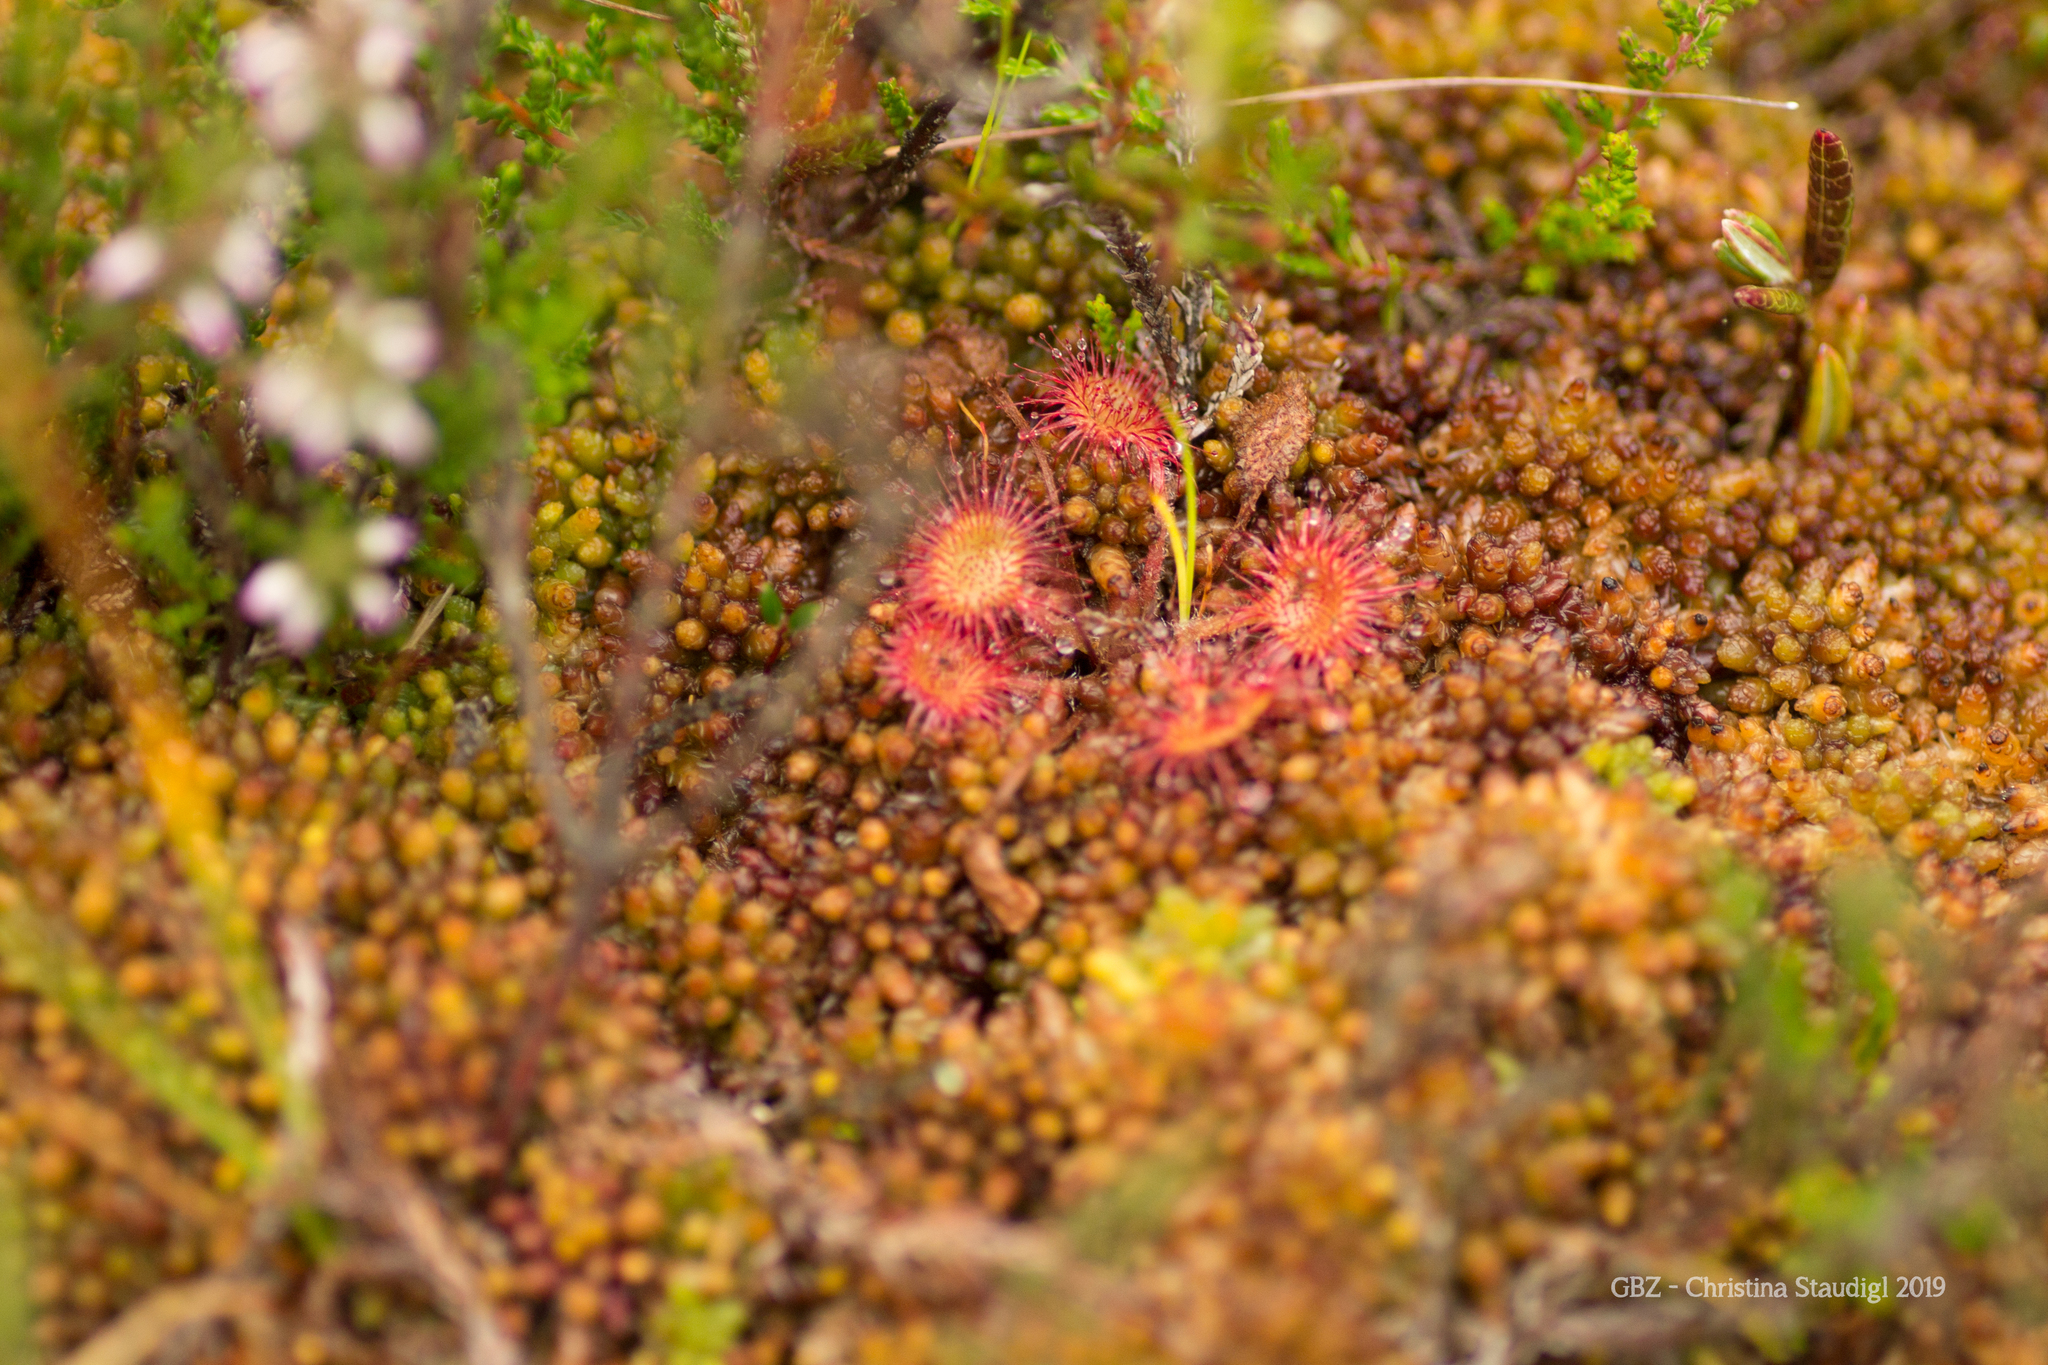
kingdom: Plantae
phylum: Tracheophyta
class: Magnoliopsida
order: Caryophyllales
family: Droseraceae
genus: Drosera
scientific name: Drosera rotundifolia
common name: Round-leaved sundew
